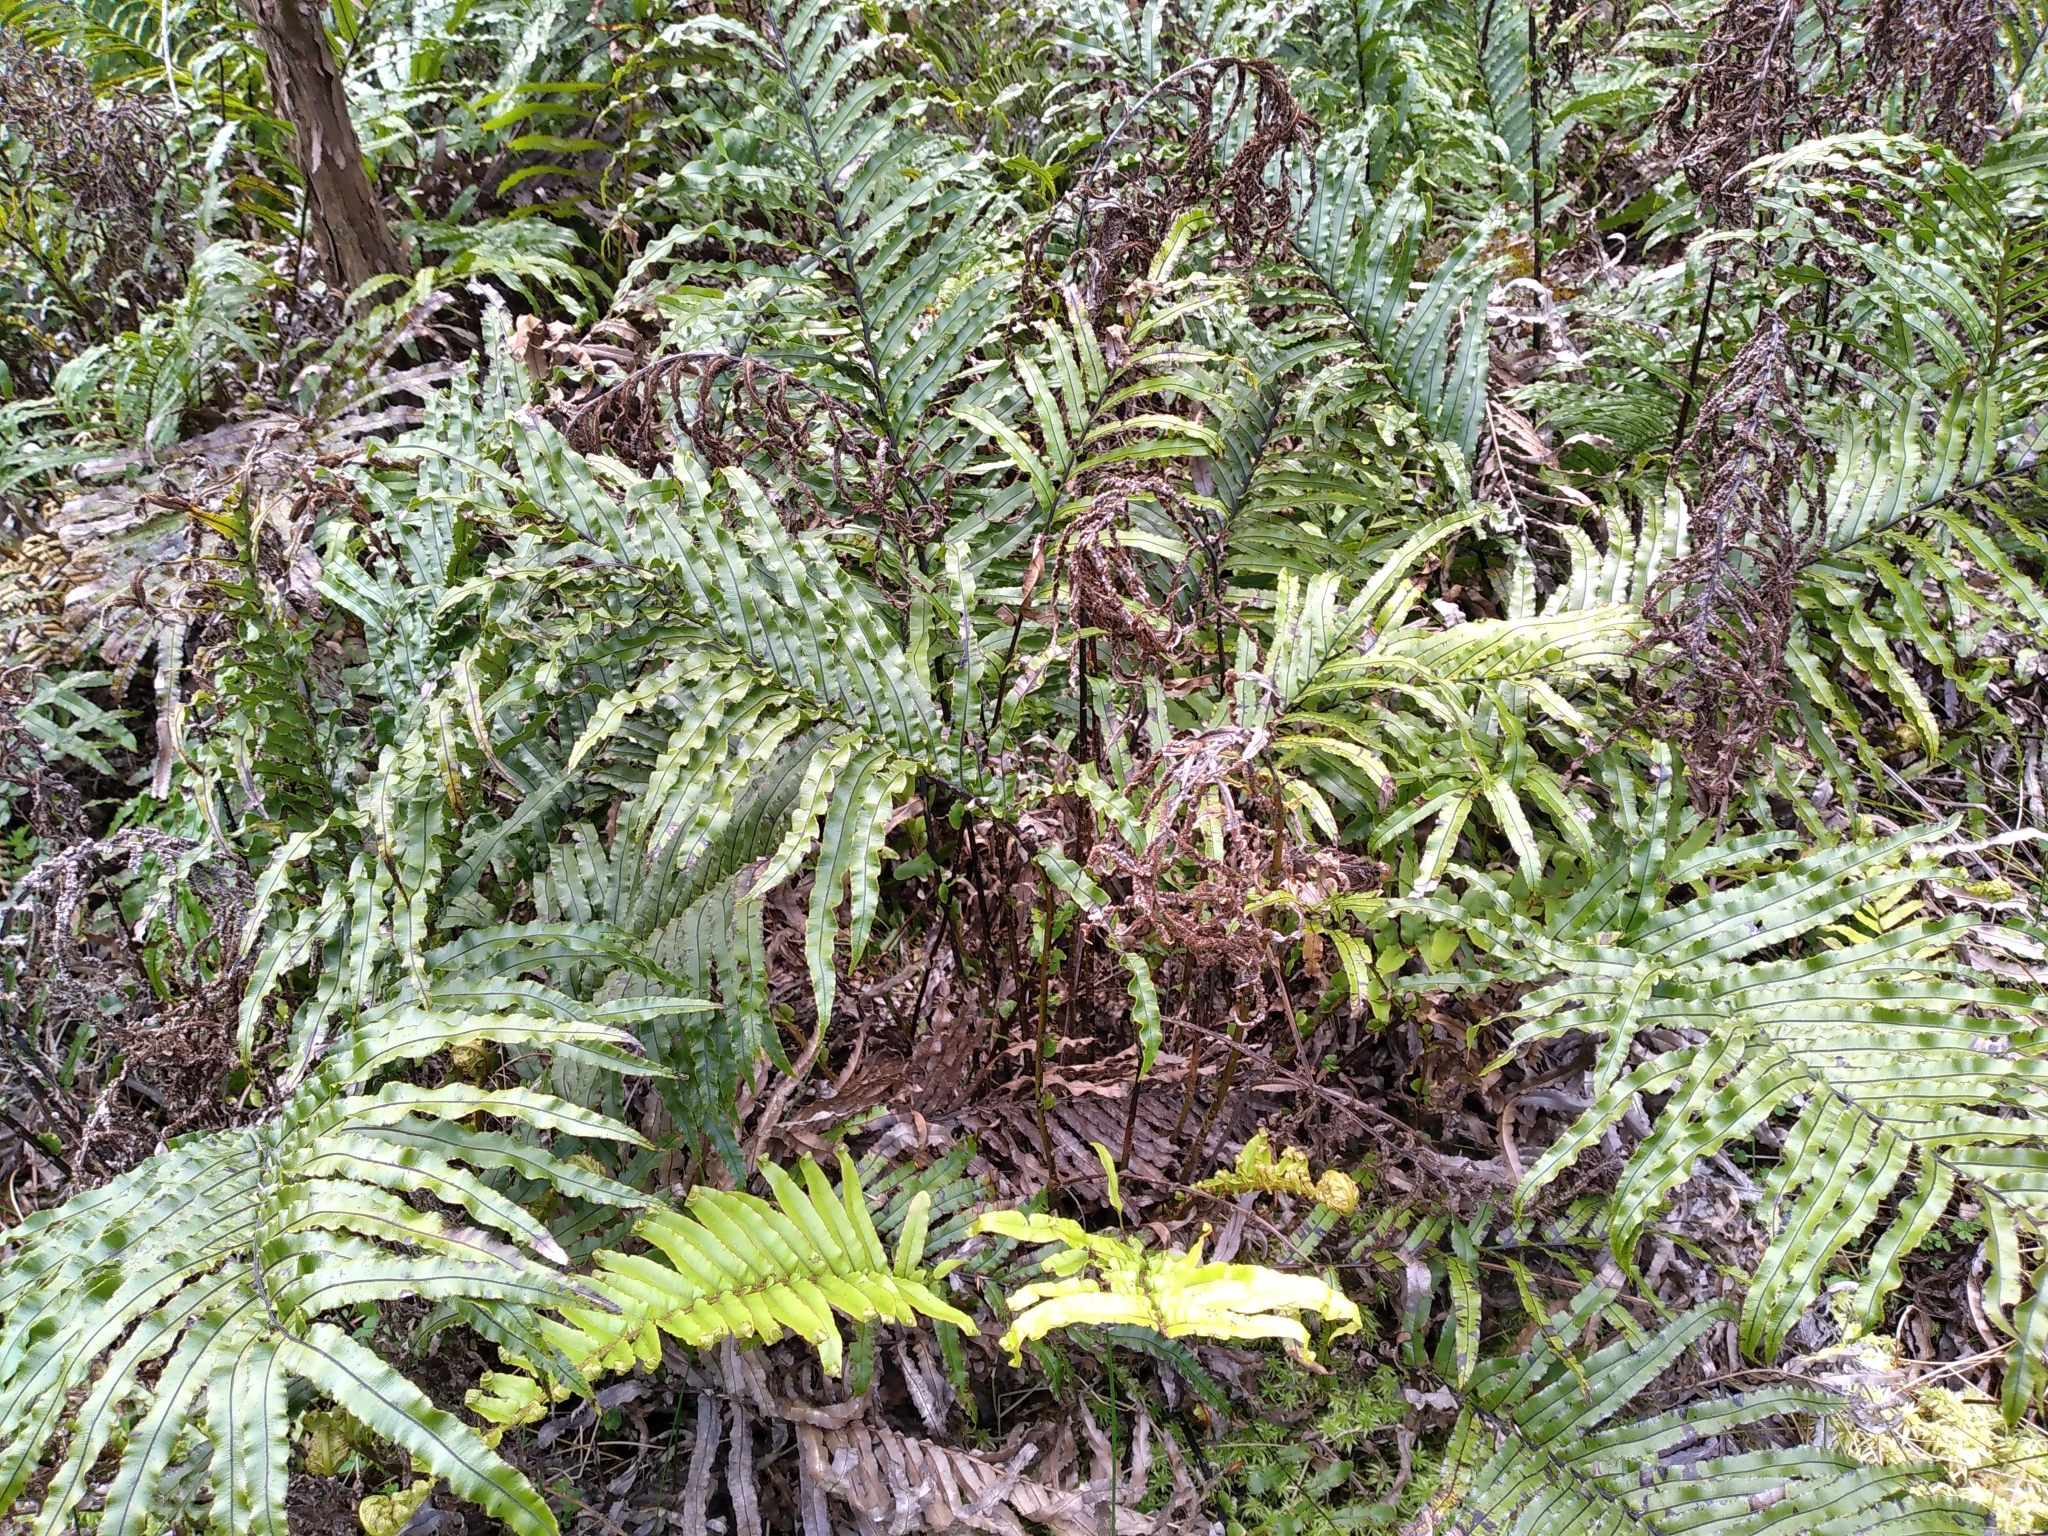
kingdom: Plantae
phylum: Tracheophyta
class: Polypodiopsida
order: Polypodiales
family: Blechnaceae
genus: Parablechnum
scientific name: Parablechnum minus
